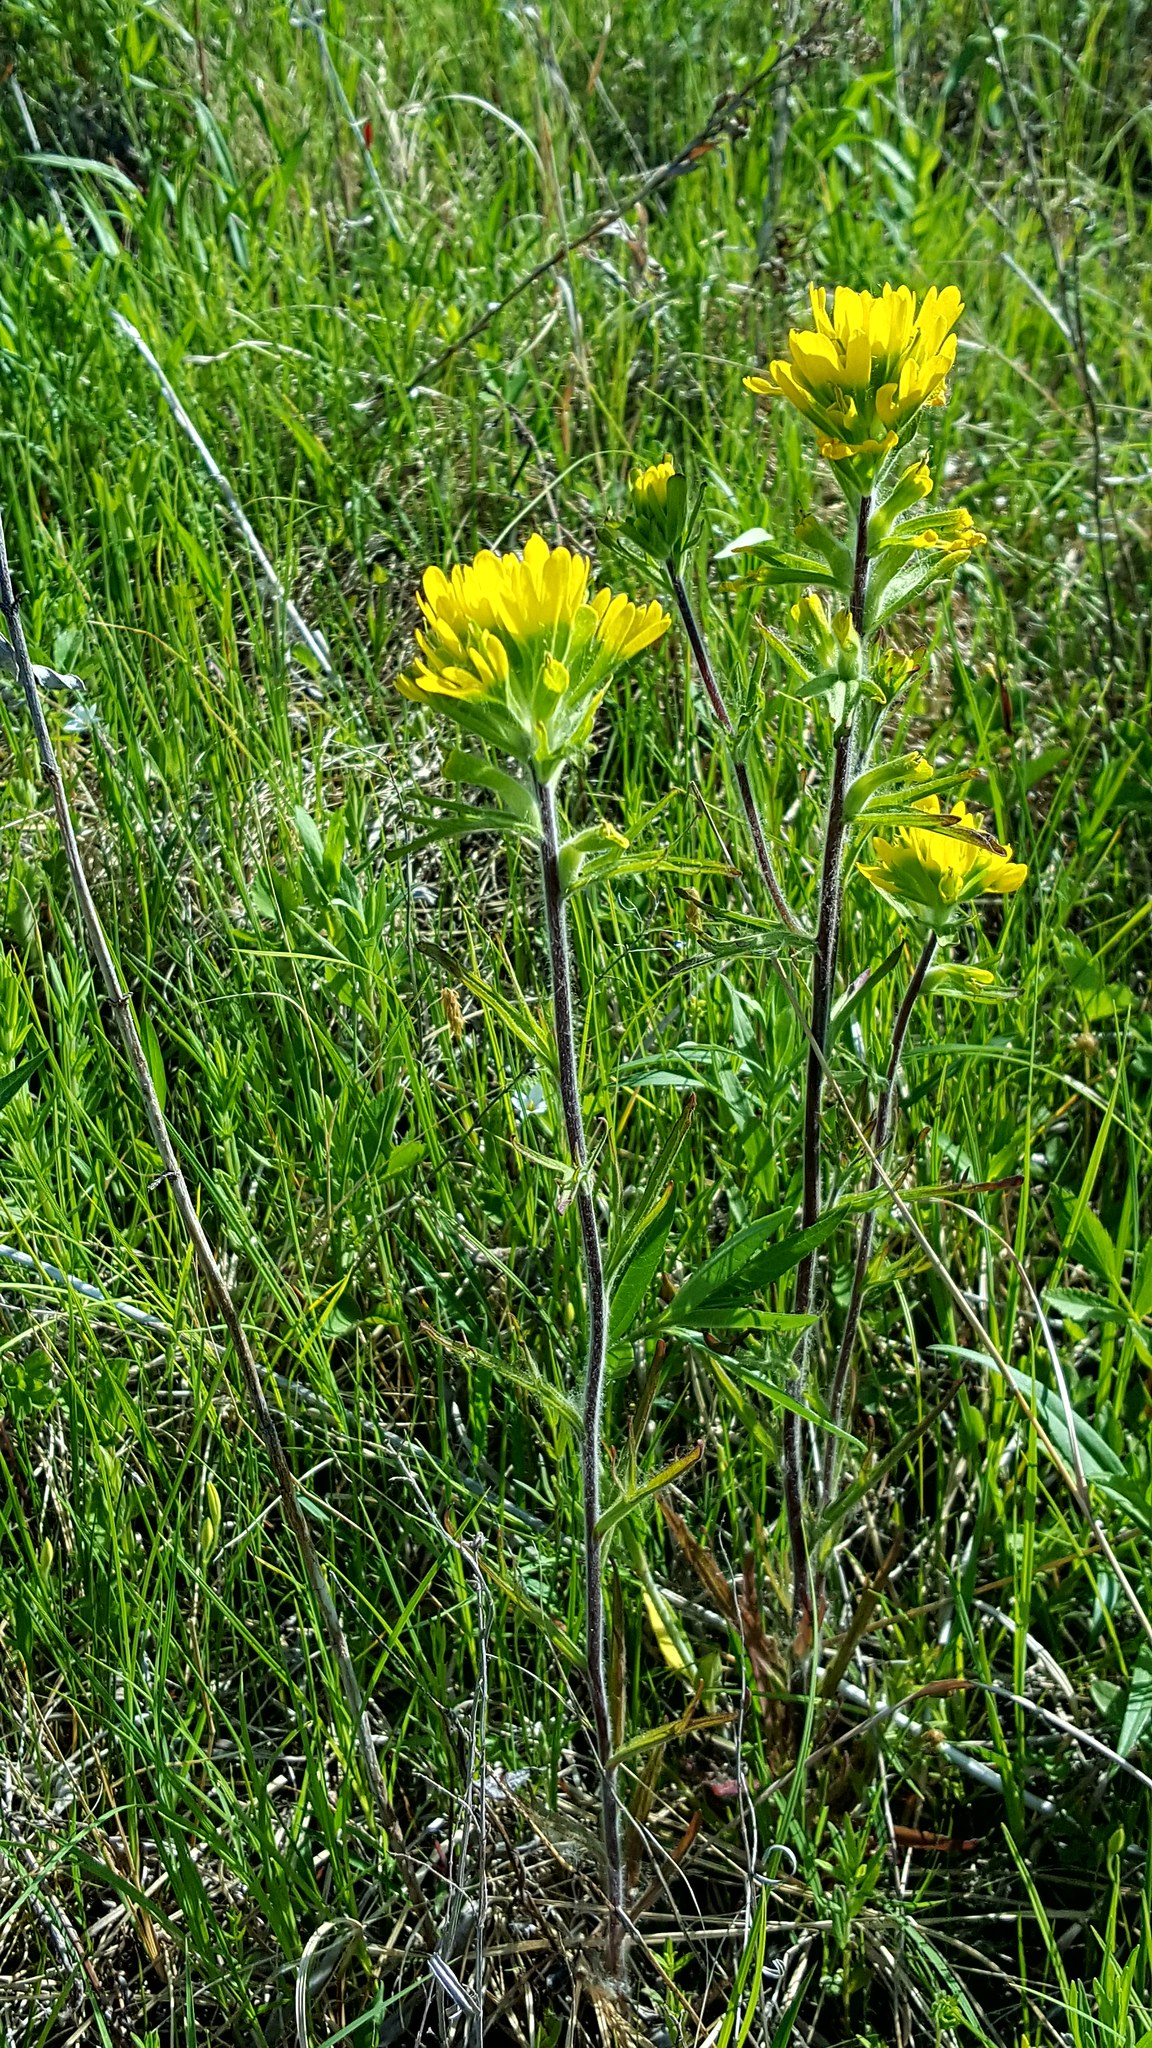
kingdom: Plantae
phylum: Tracheophyta
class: Magnoliopsida
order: Lamiales
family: Orobanchaceae
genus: Castilleja
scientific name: Castilleja coccinea
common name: Scarlet paintbrush
